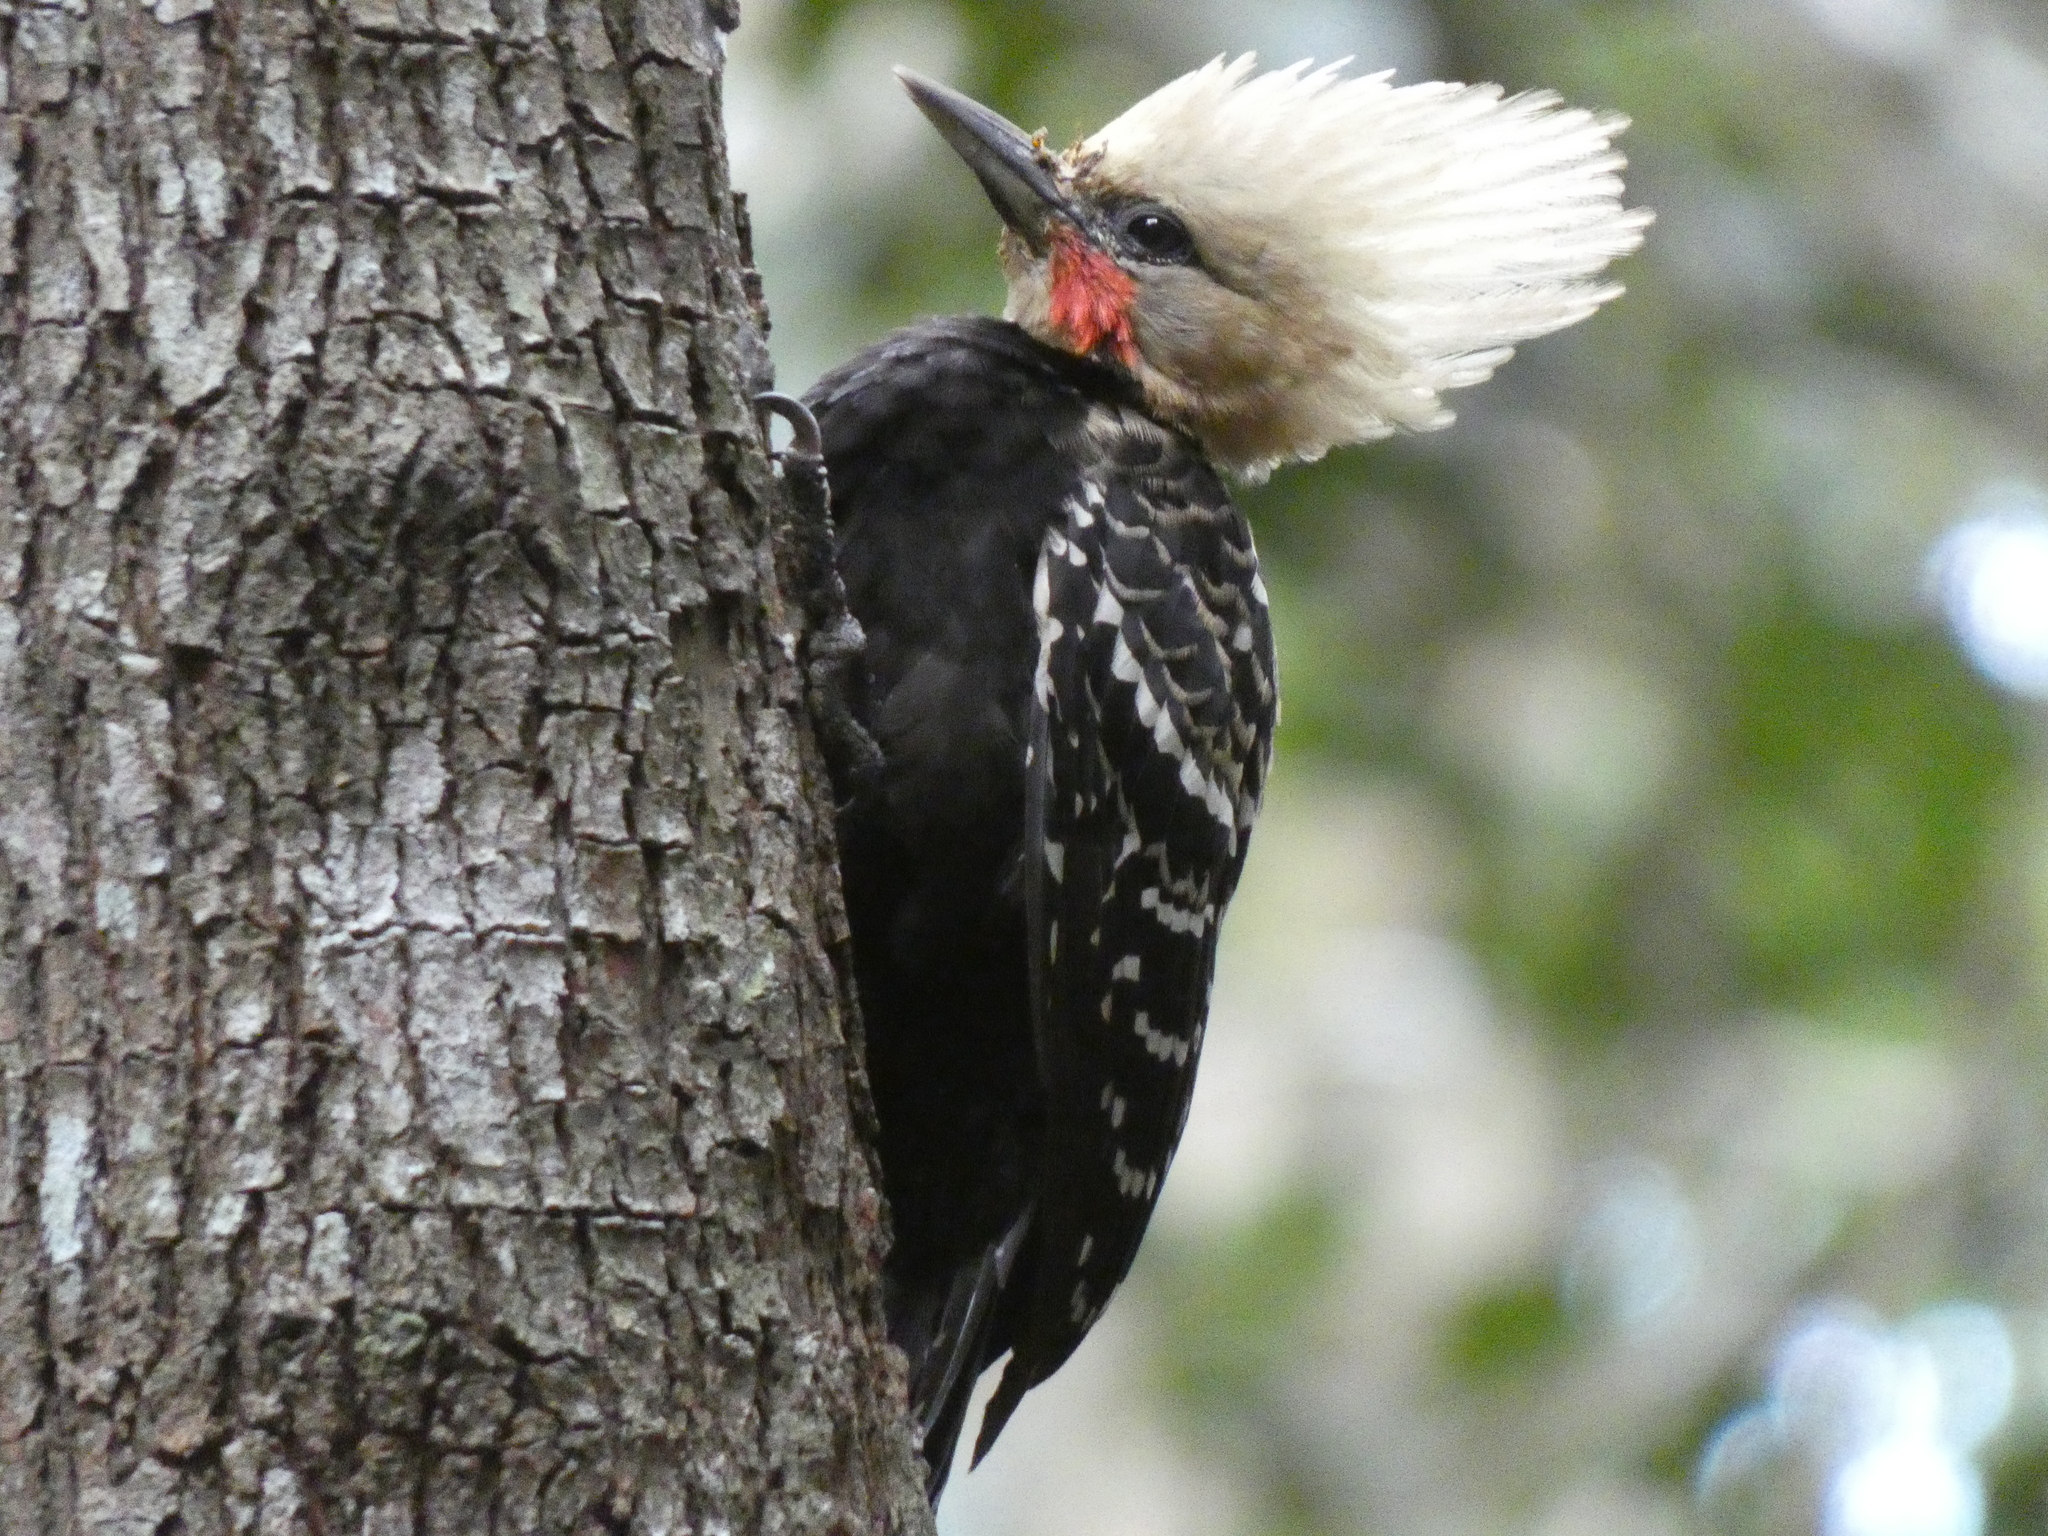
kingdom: Animalia
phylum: Chordata
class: Aves
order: Piciformes
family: Picidae
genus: Celeus
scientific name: Celeus flavescens
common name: Blond-crested woodpecker
